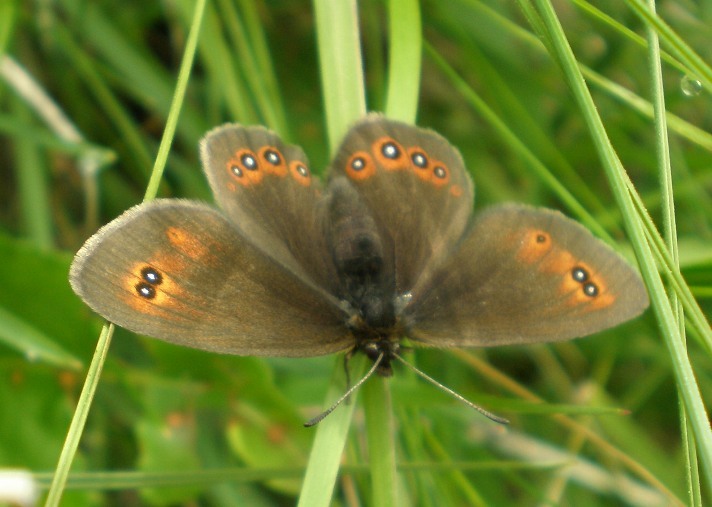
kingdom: Animalia
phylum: Arthropoda
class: Insecta
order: Lepidoptera
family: Nymphalidae
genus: Erebia
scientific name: Erebia oeme
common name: Bright-eyed ringlet
